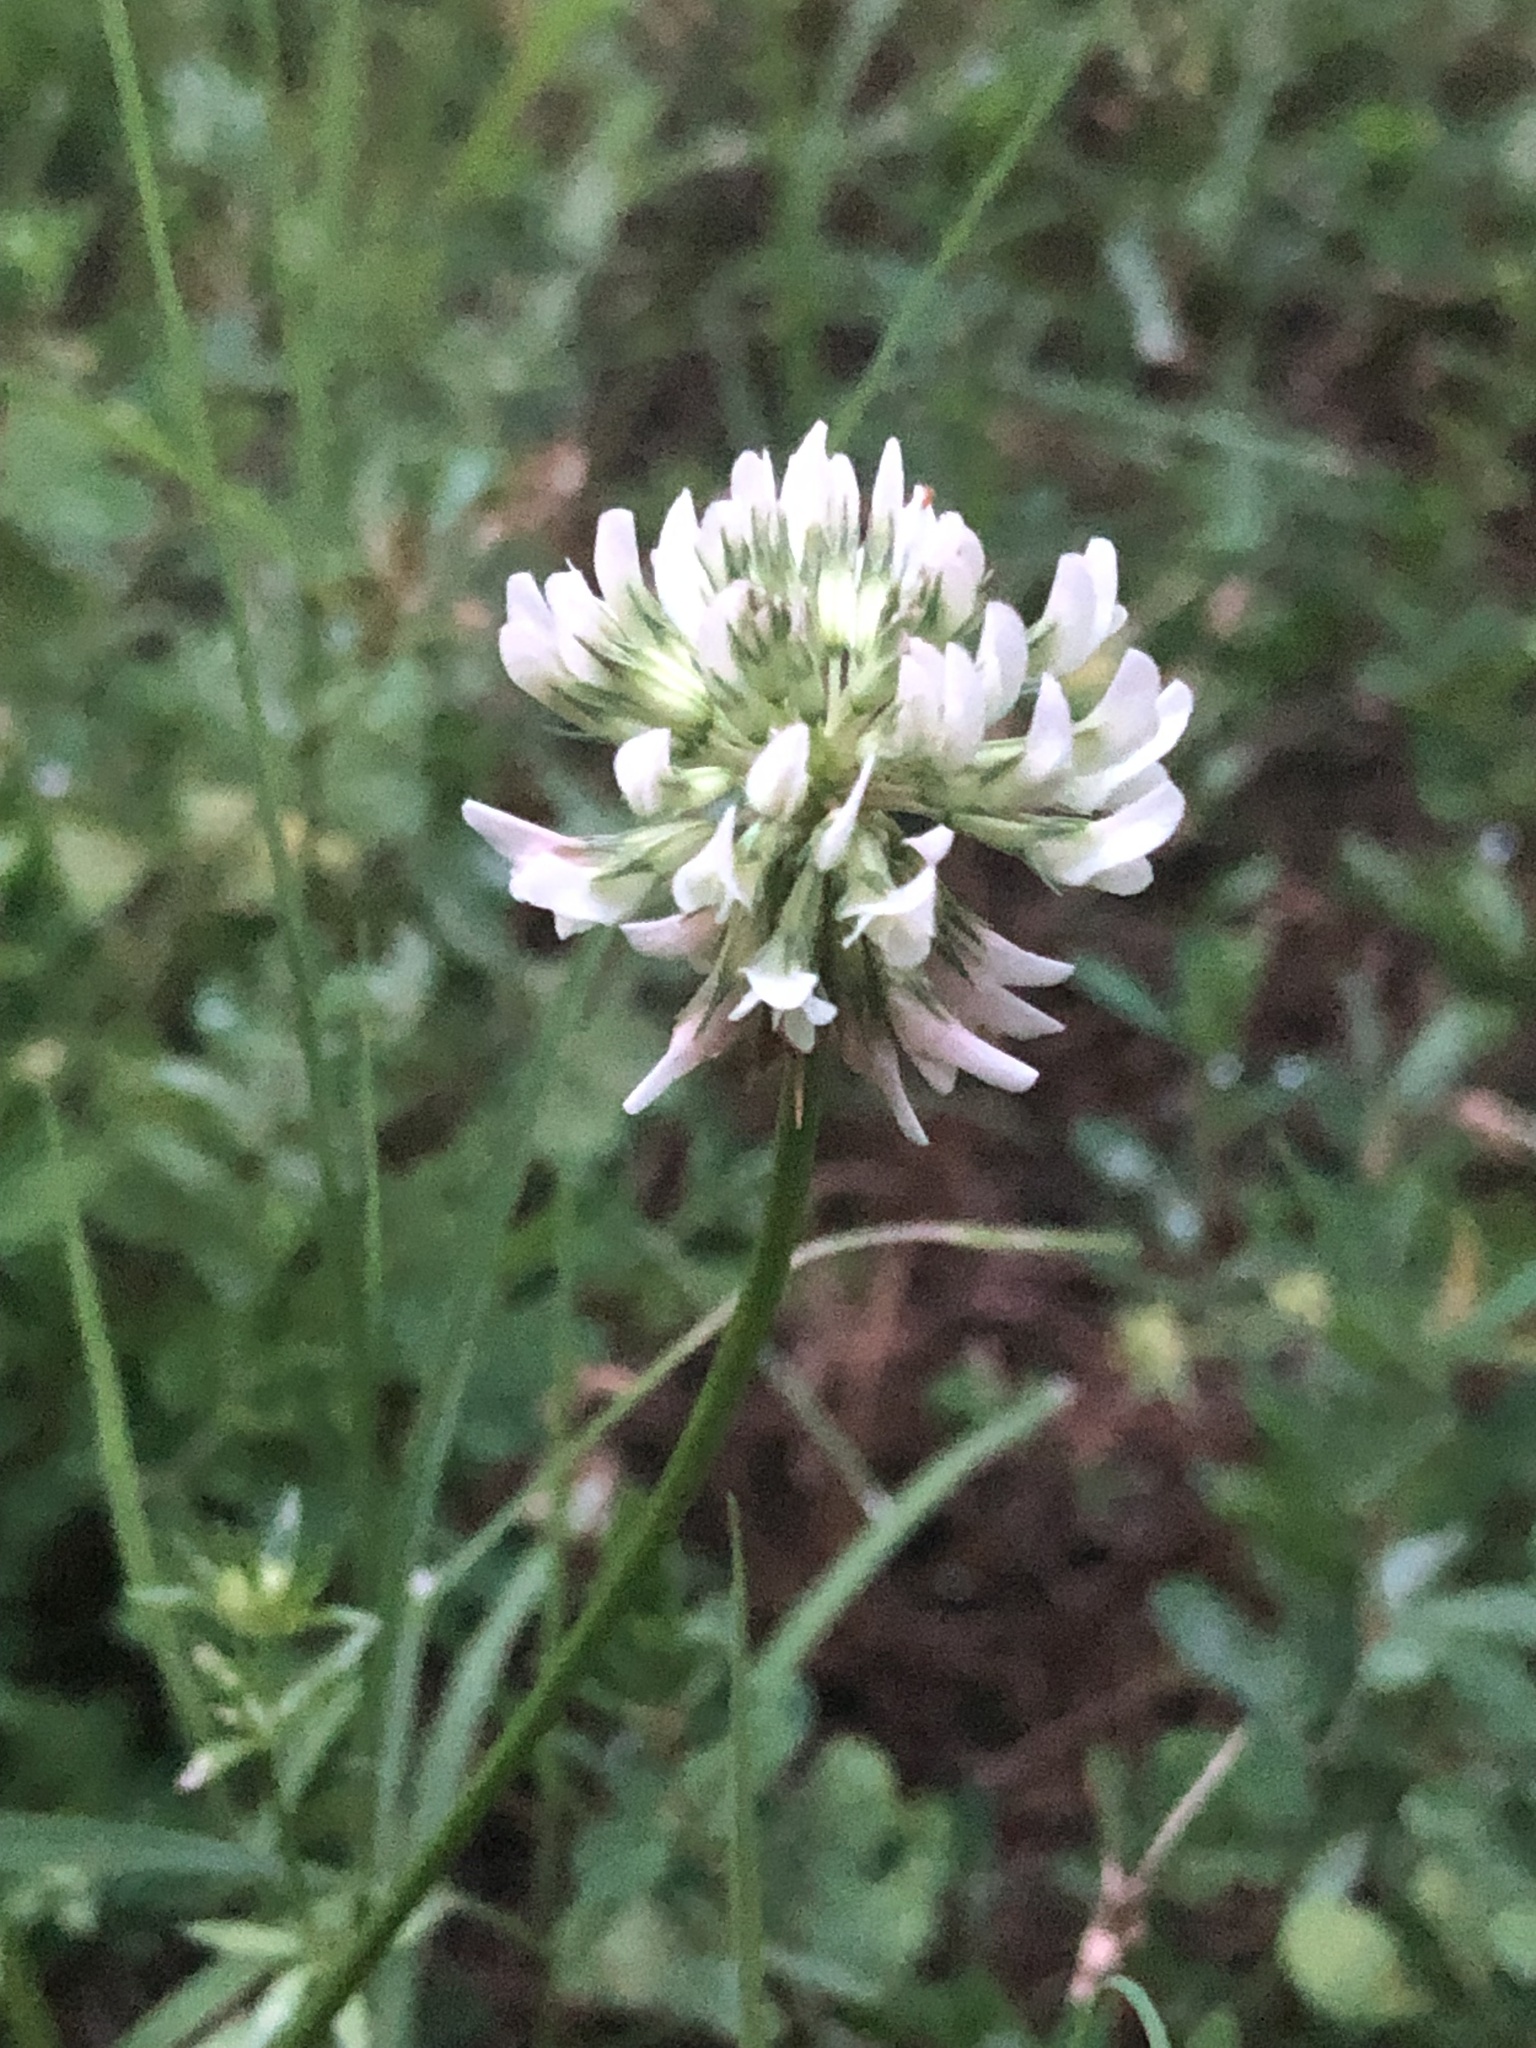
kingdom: Plantae
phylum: Tracheophyta
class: Magnoliopsida
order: Fabales
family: Fabaceae
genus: Trifolium
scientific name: Trifolium repens
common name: White clover
